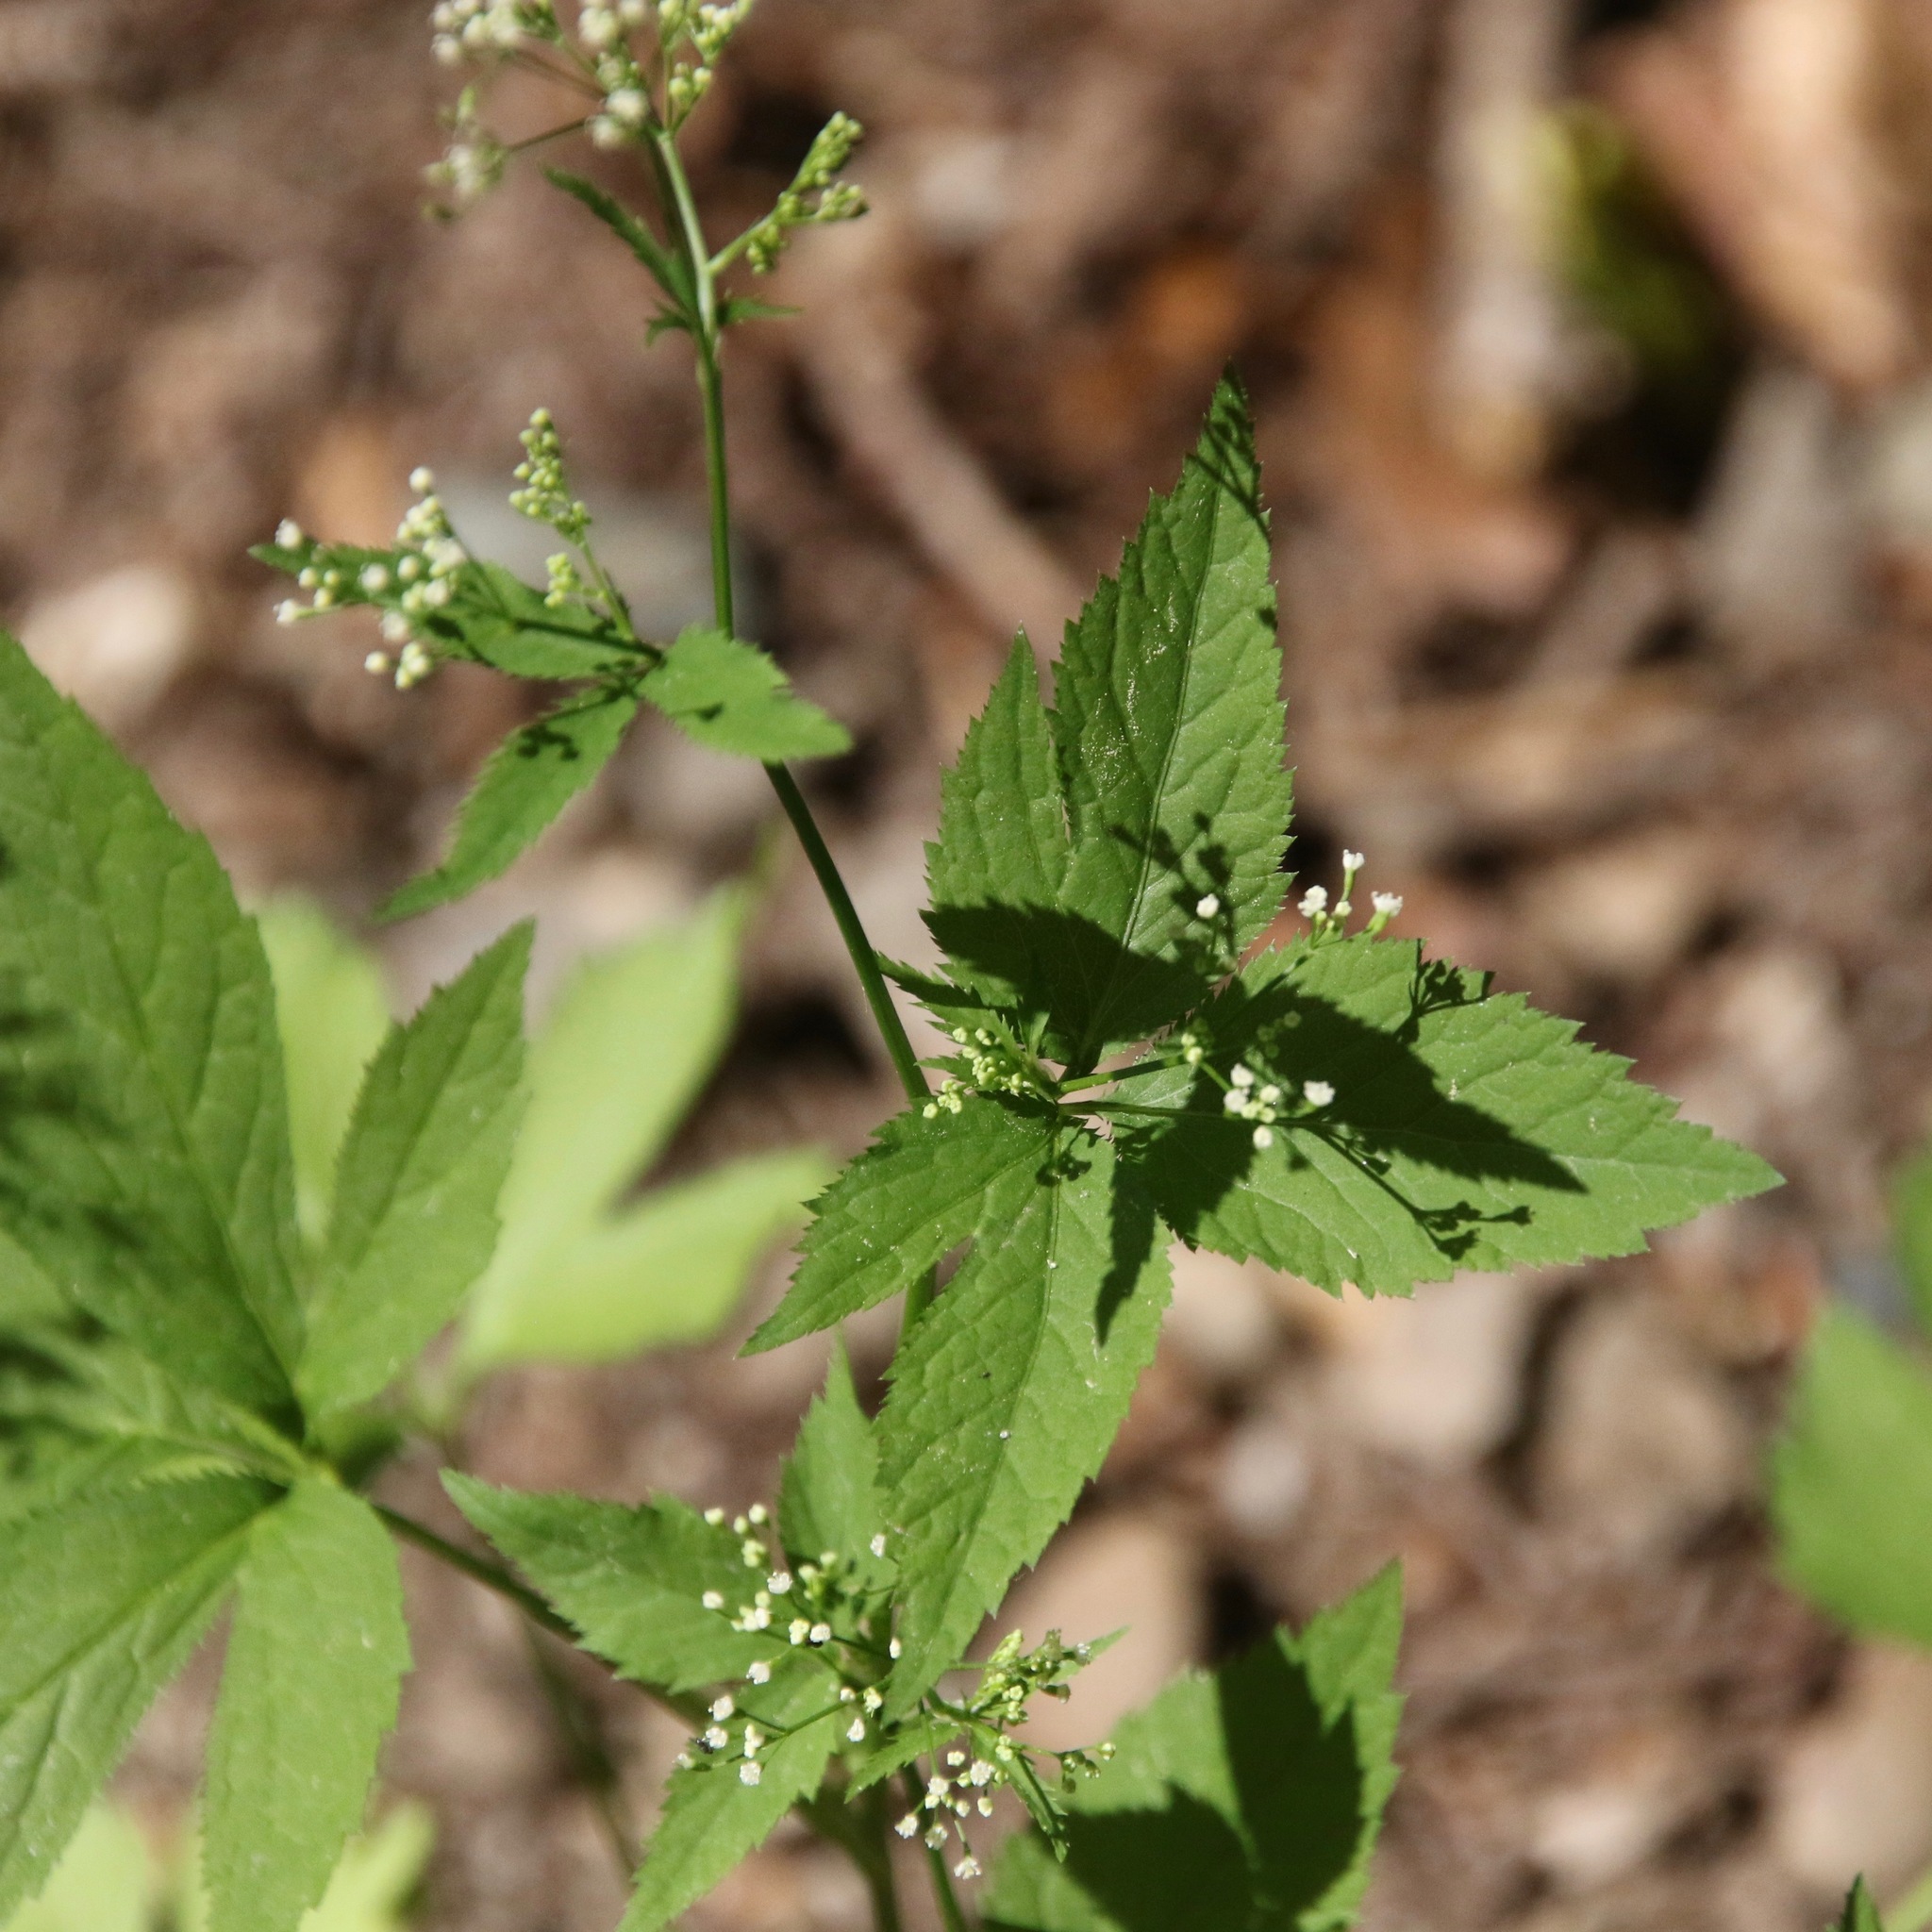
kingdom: Plantae
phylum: Tracheophyta
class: Magnoliopsida
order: Apiales
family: Apiaceae
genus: Cryptotaenia
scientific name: Cryptotaenia canadensis
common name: Honewort
